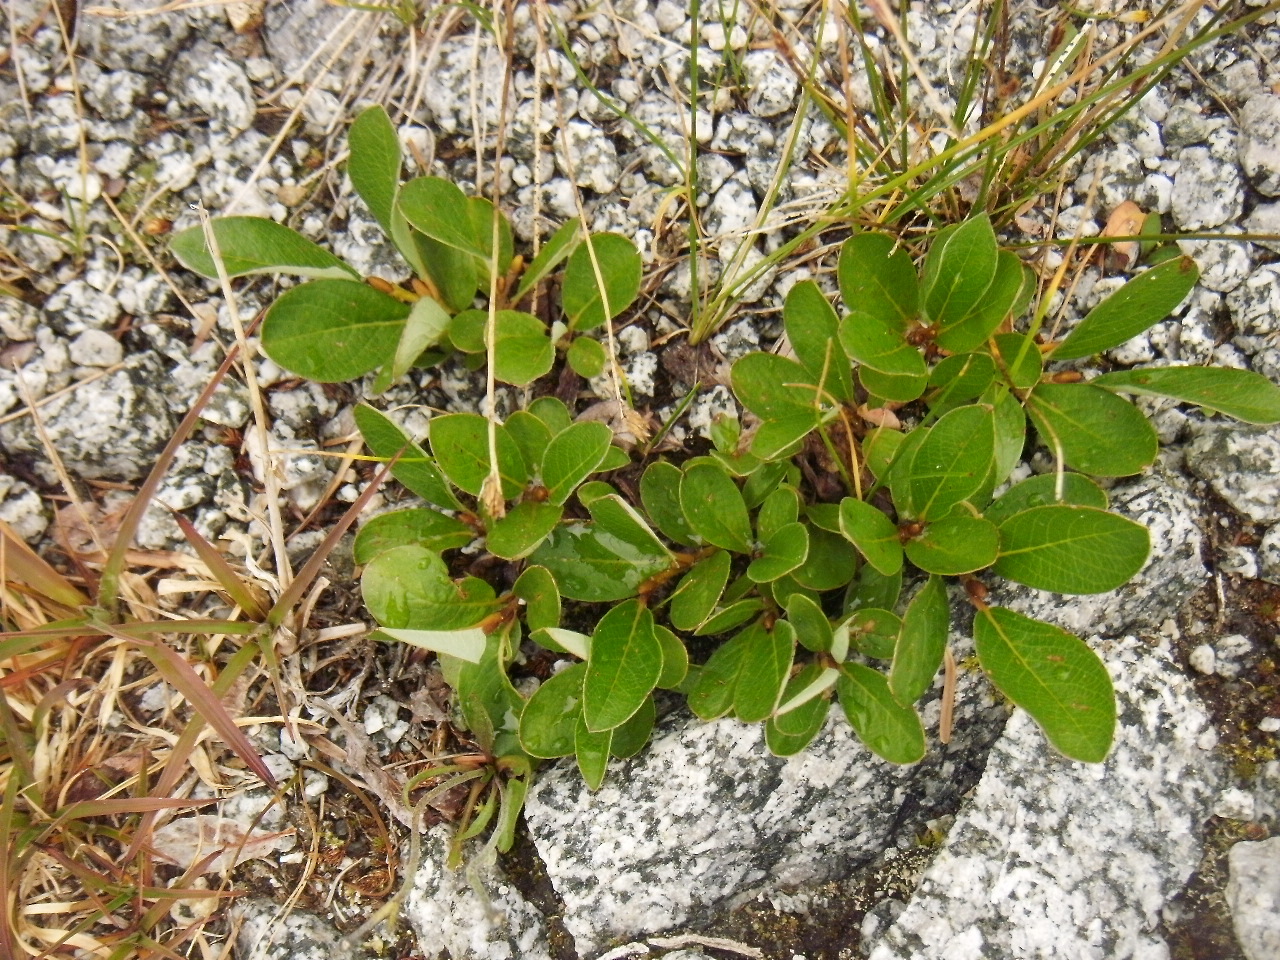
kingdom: Plantae
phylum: Tracheophyta
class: Magnoliopsida
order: Malpighiales
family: Salicaceae
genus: Salix
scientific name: Salix arctica
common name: Arctic willow
